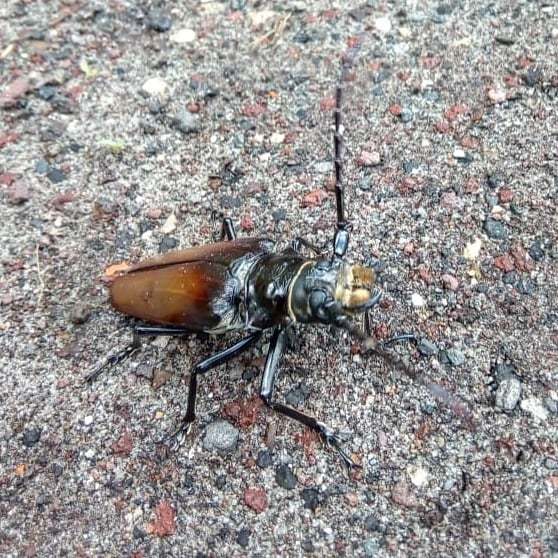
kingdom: Animalia
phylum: Arthropoda
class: Insecta
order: Coleoptera
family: Cerambycidae
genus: Callipogon
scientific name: Callipogon senex
